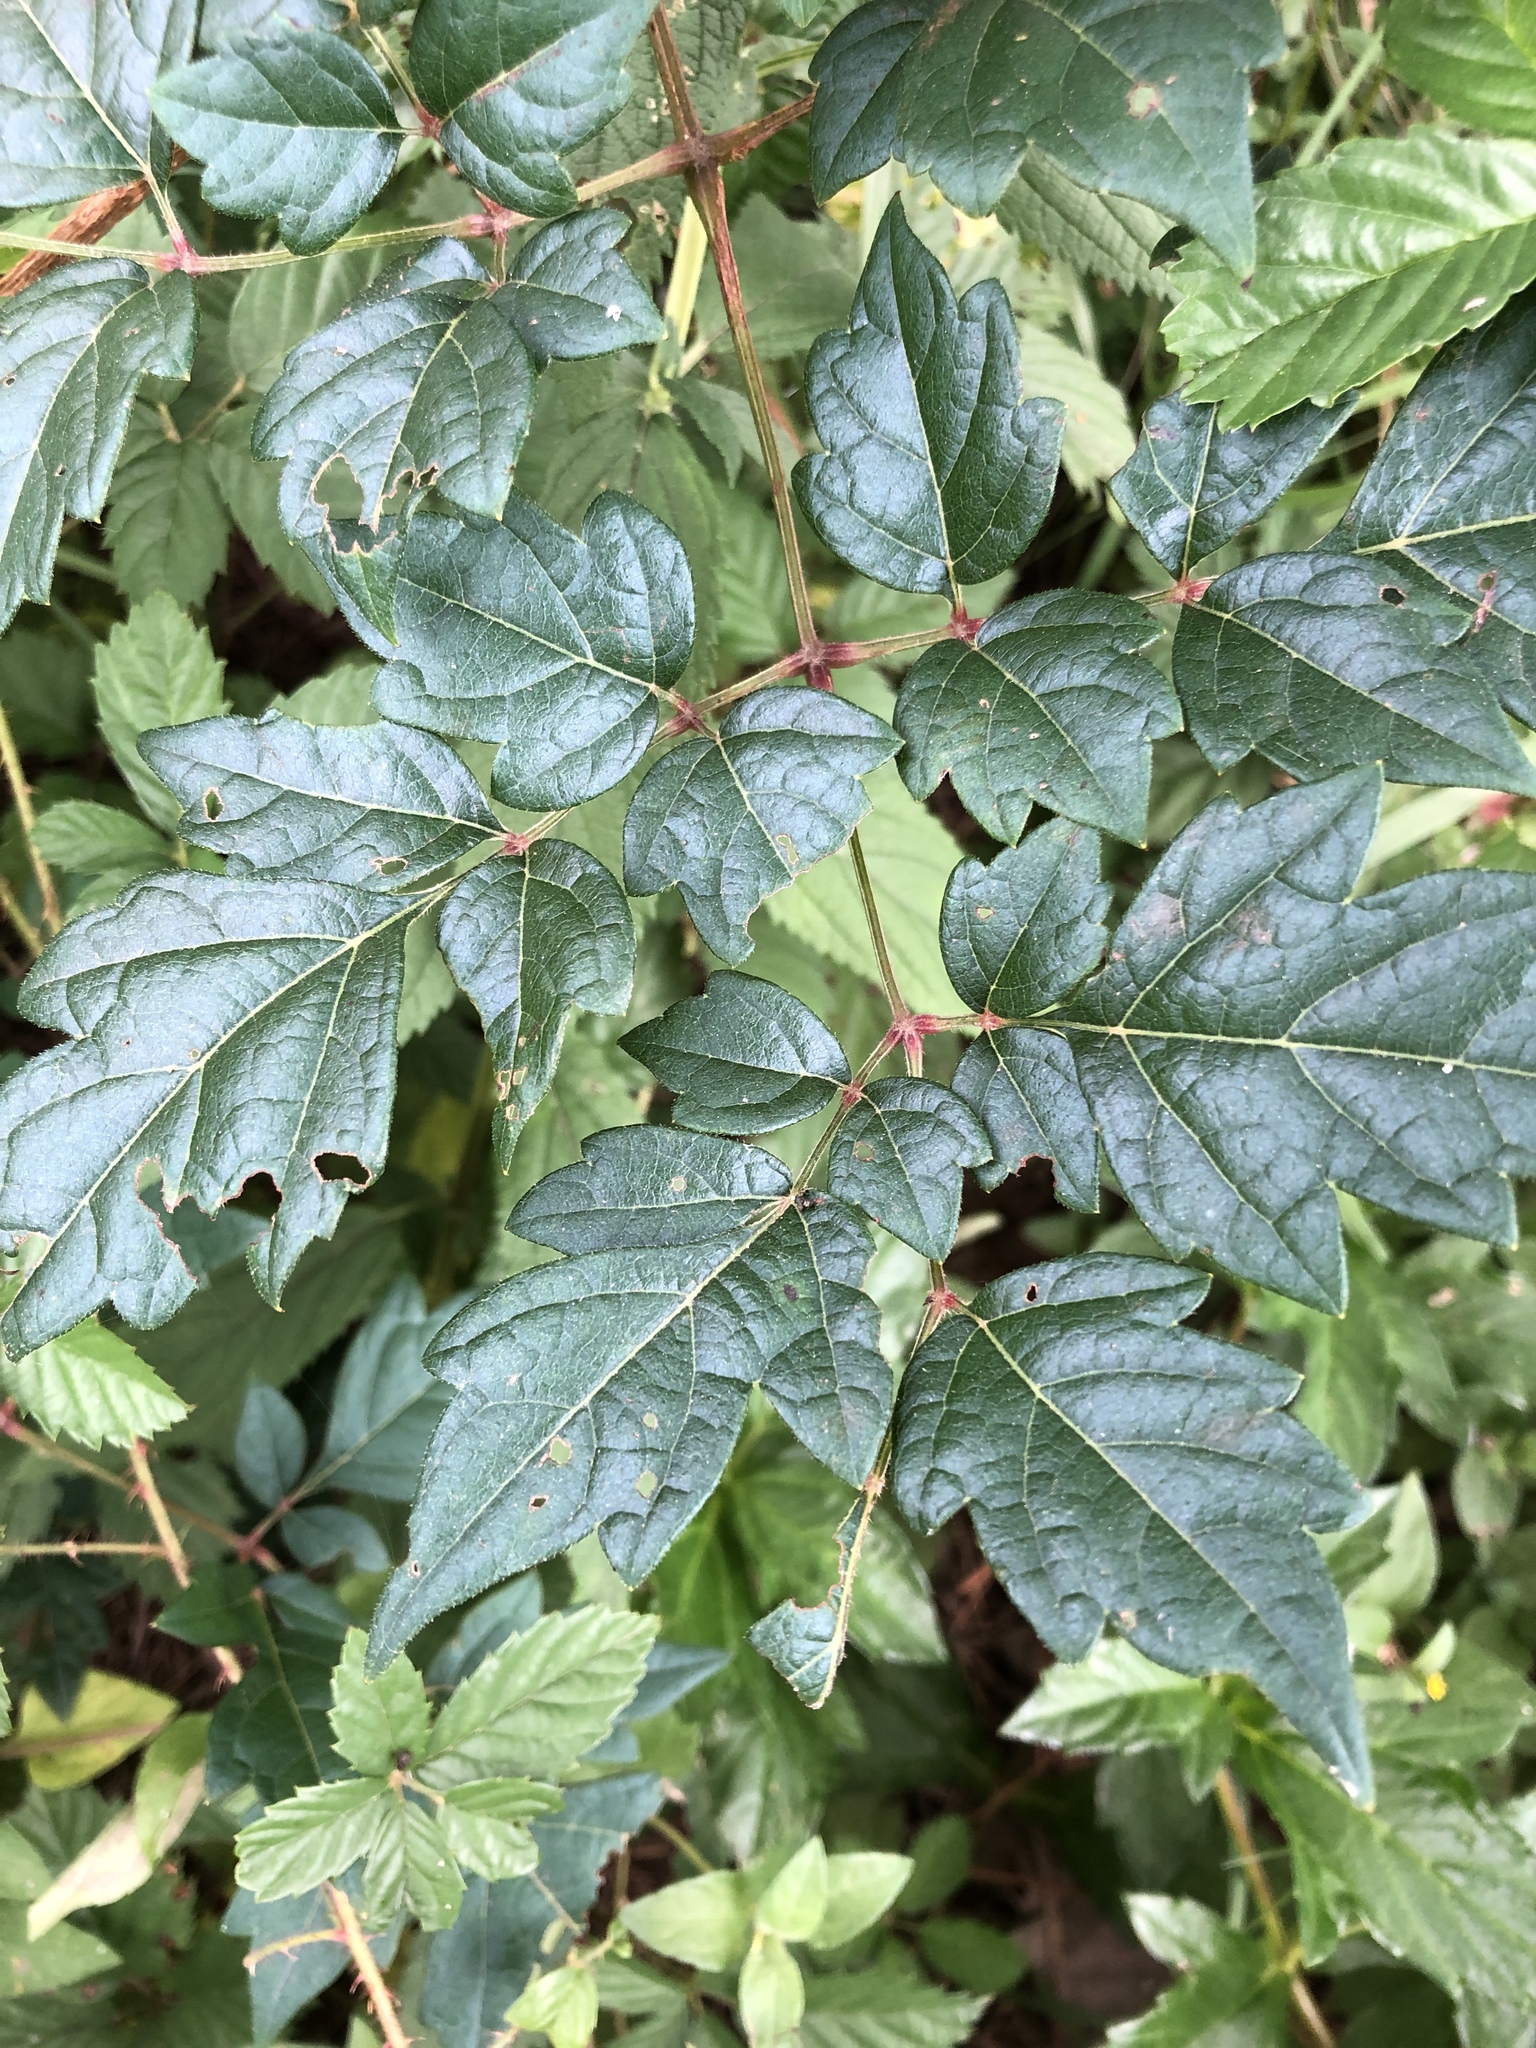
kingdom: Plantae
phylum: Tracheophyta
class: Magnoliopsida
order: Vitales
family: Vitaceae
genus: Nekemias
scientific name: Nekemias arborea
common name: Peppervine
